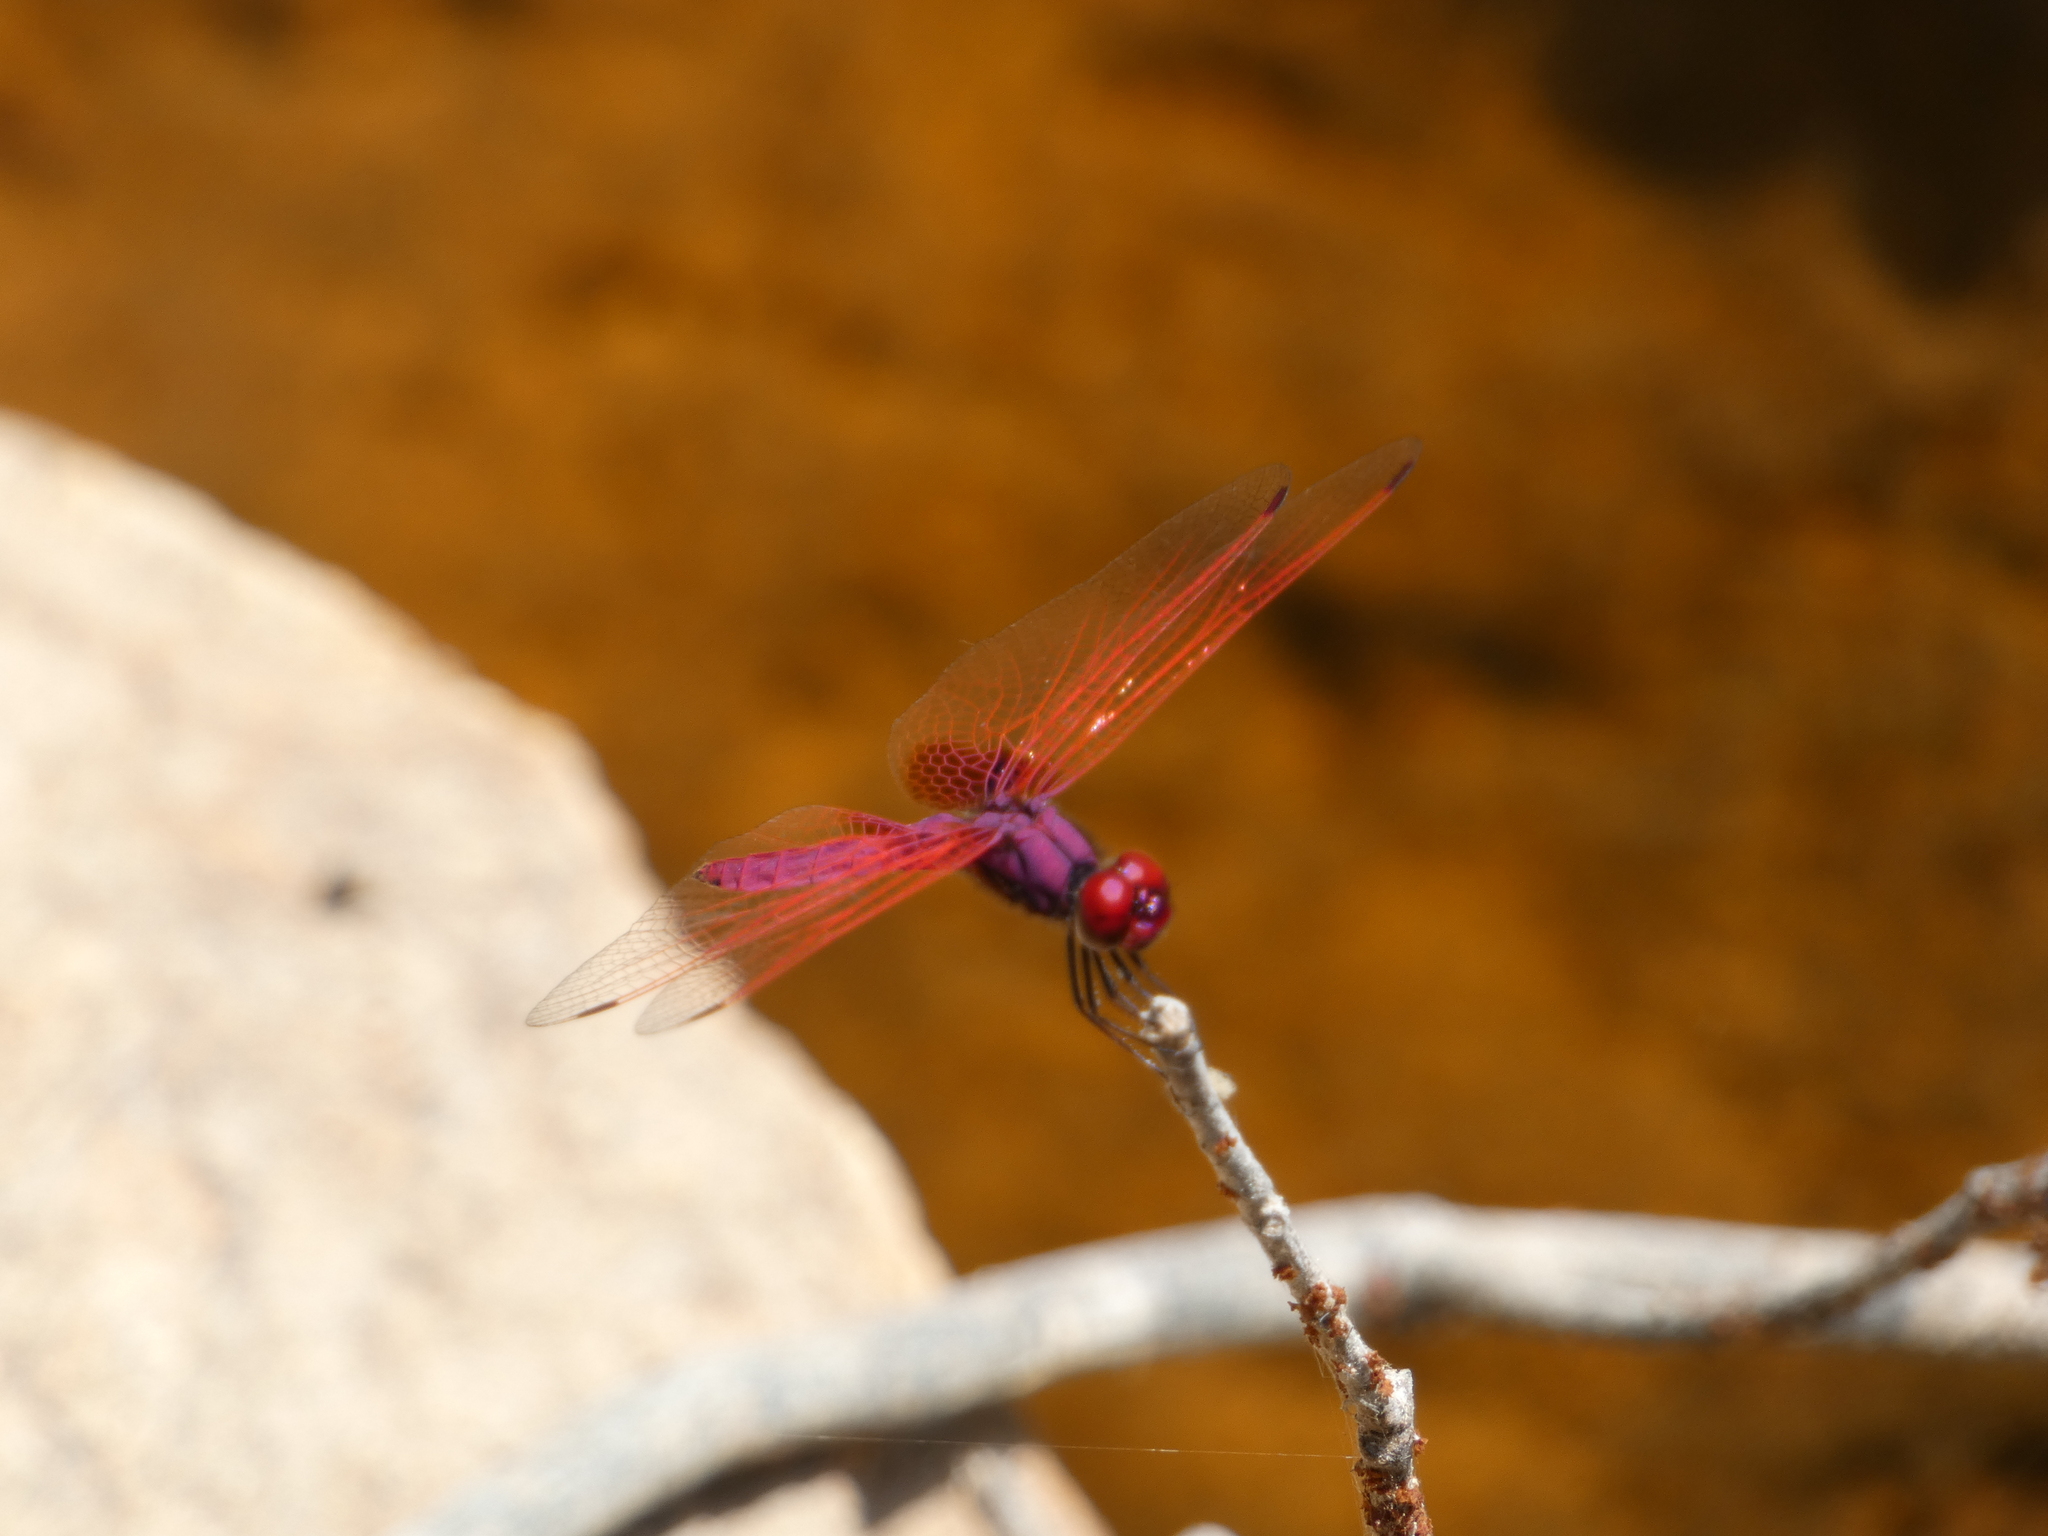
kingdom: Animalia
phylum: Arthropoda
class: Insecta
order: Odonata
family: Libellulidae
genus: Trithemis
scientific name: Trithemis aurora
